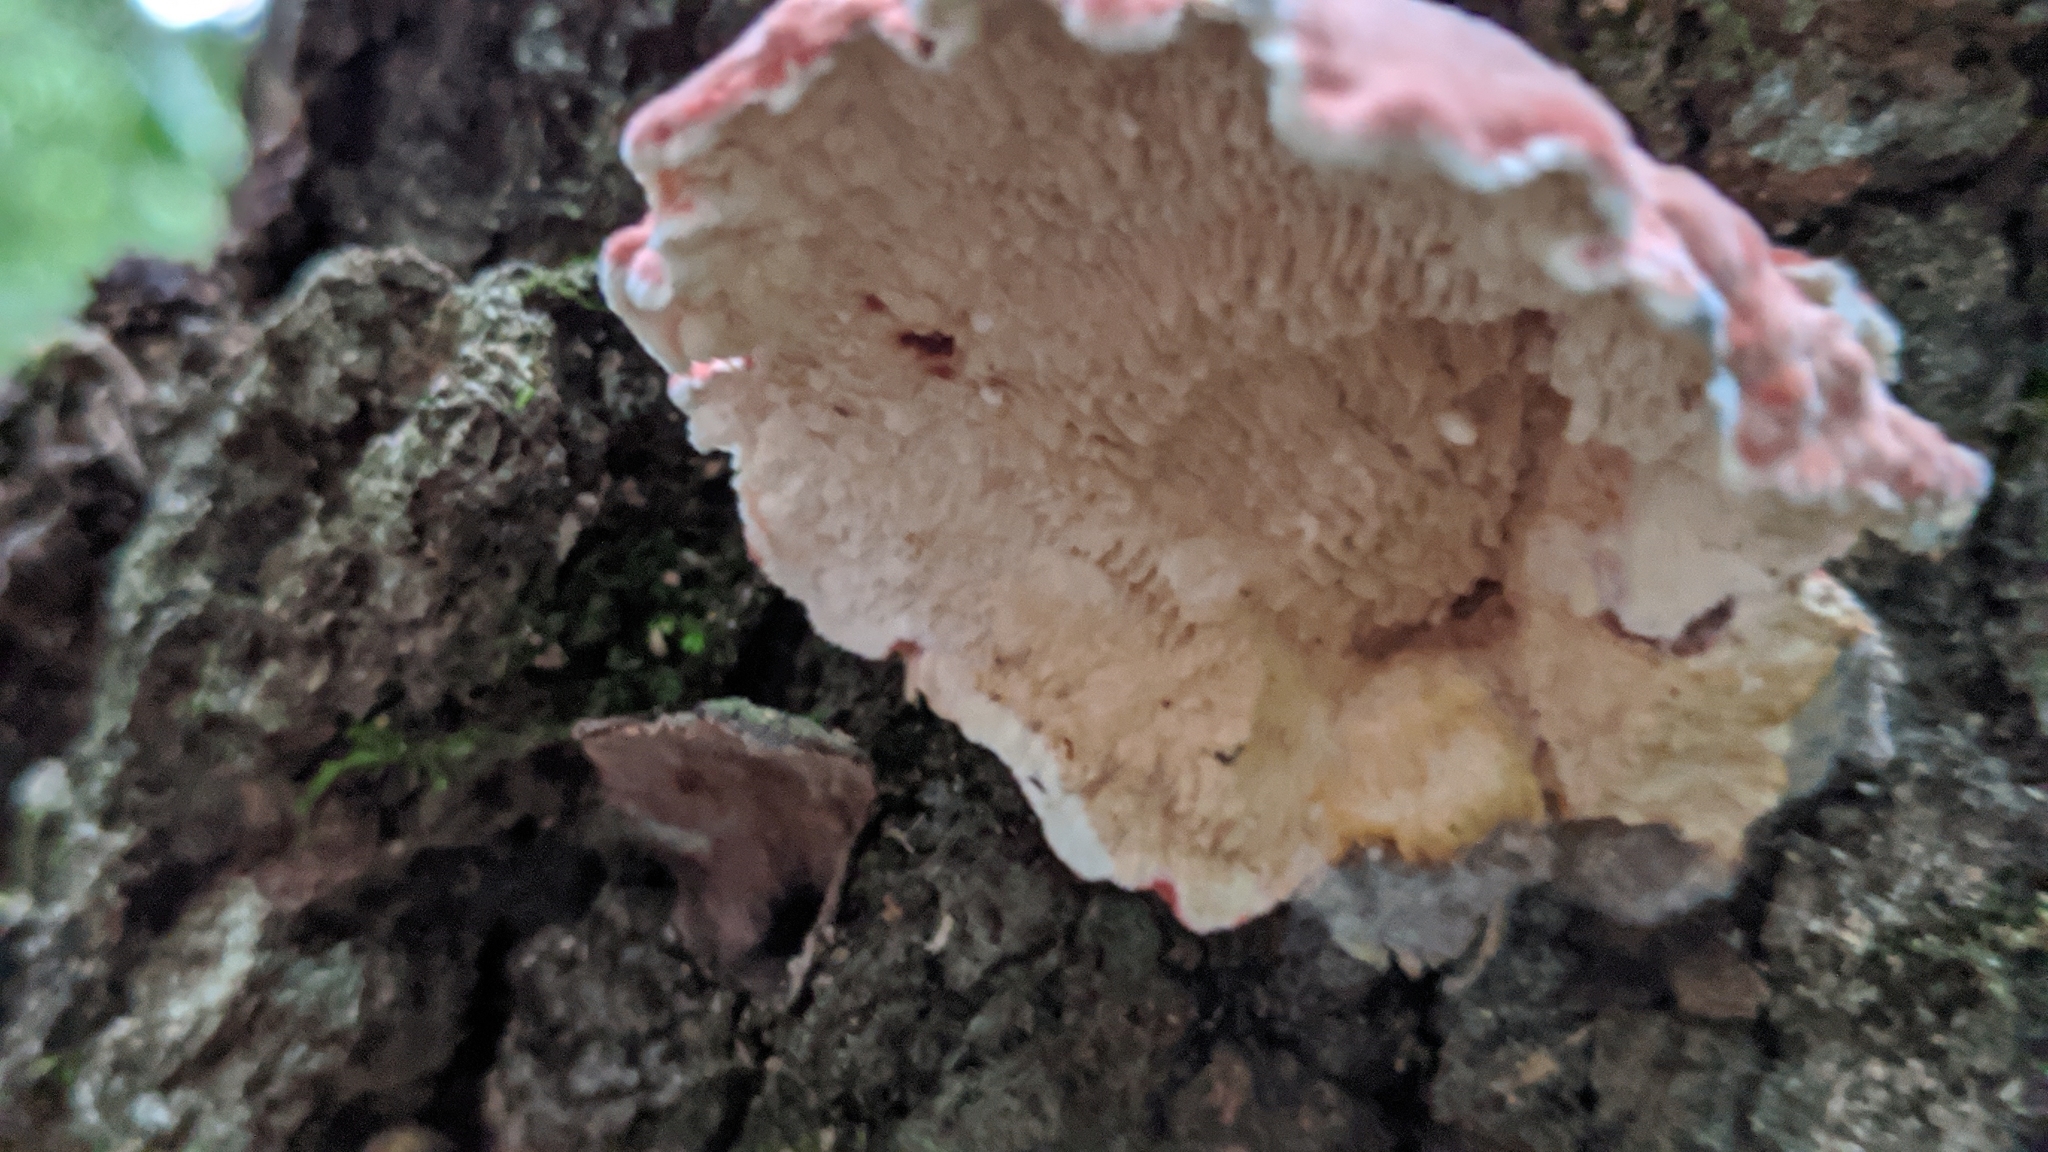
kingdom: Fungi
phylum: Basidiomycota
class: Agaricomycetes
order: Polyporales
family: Irpicaceae
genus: Byssomerulius
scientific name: Byssomerulius incarnatus
